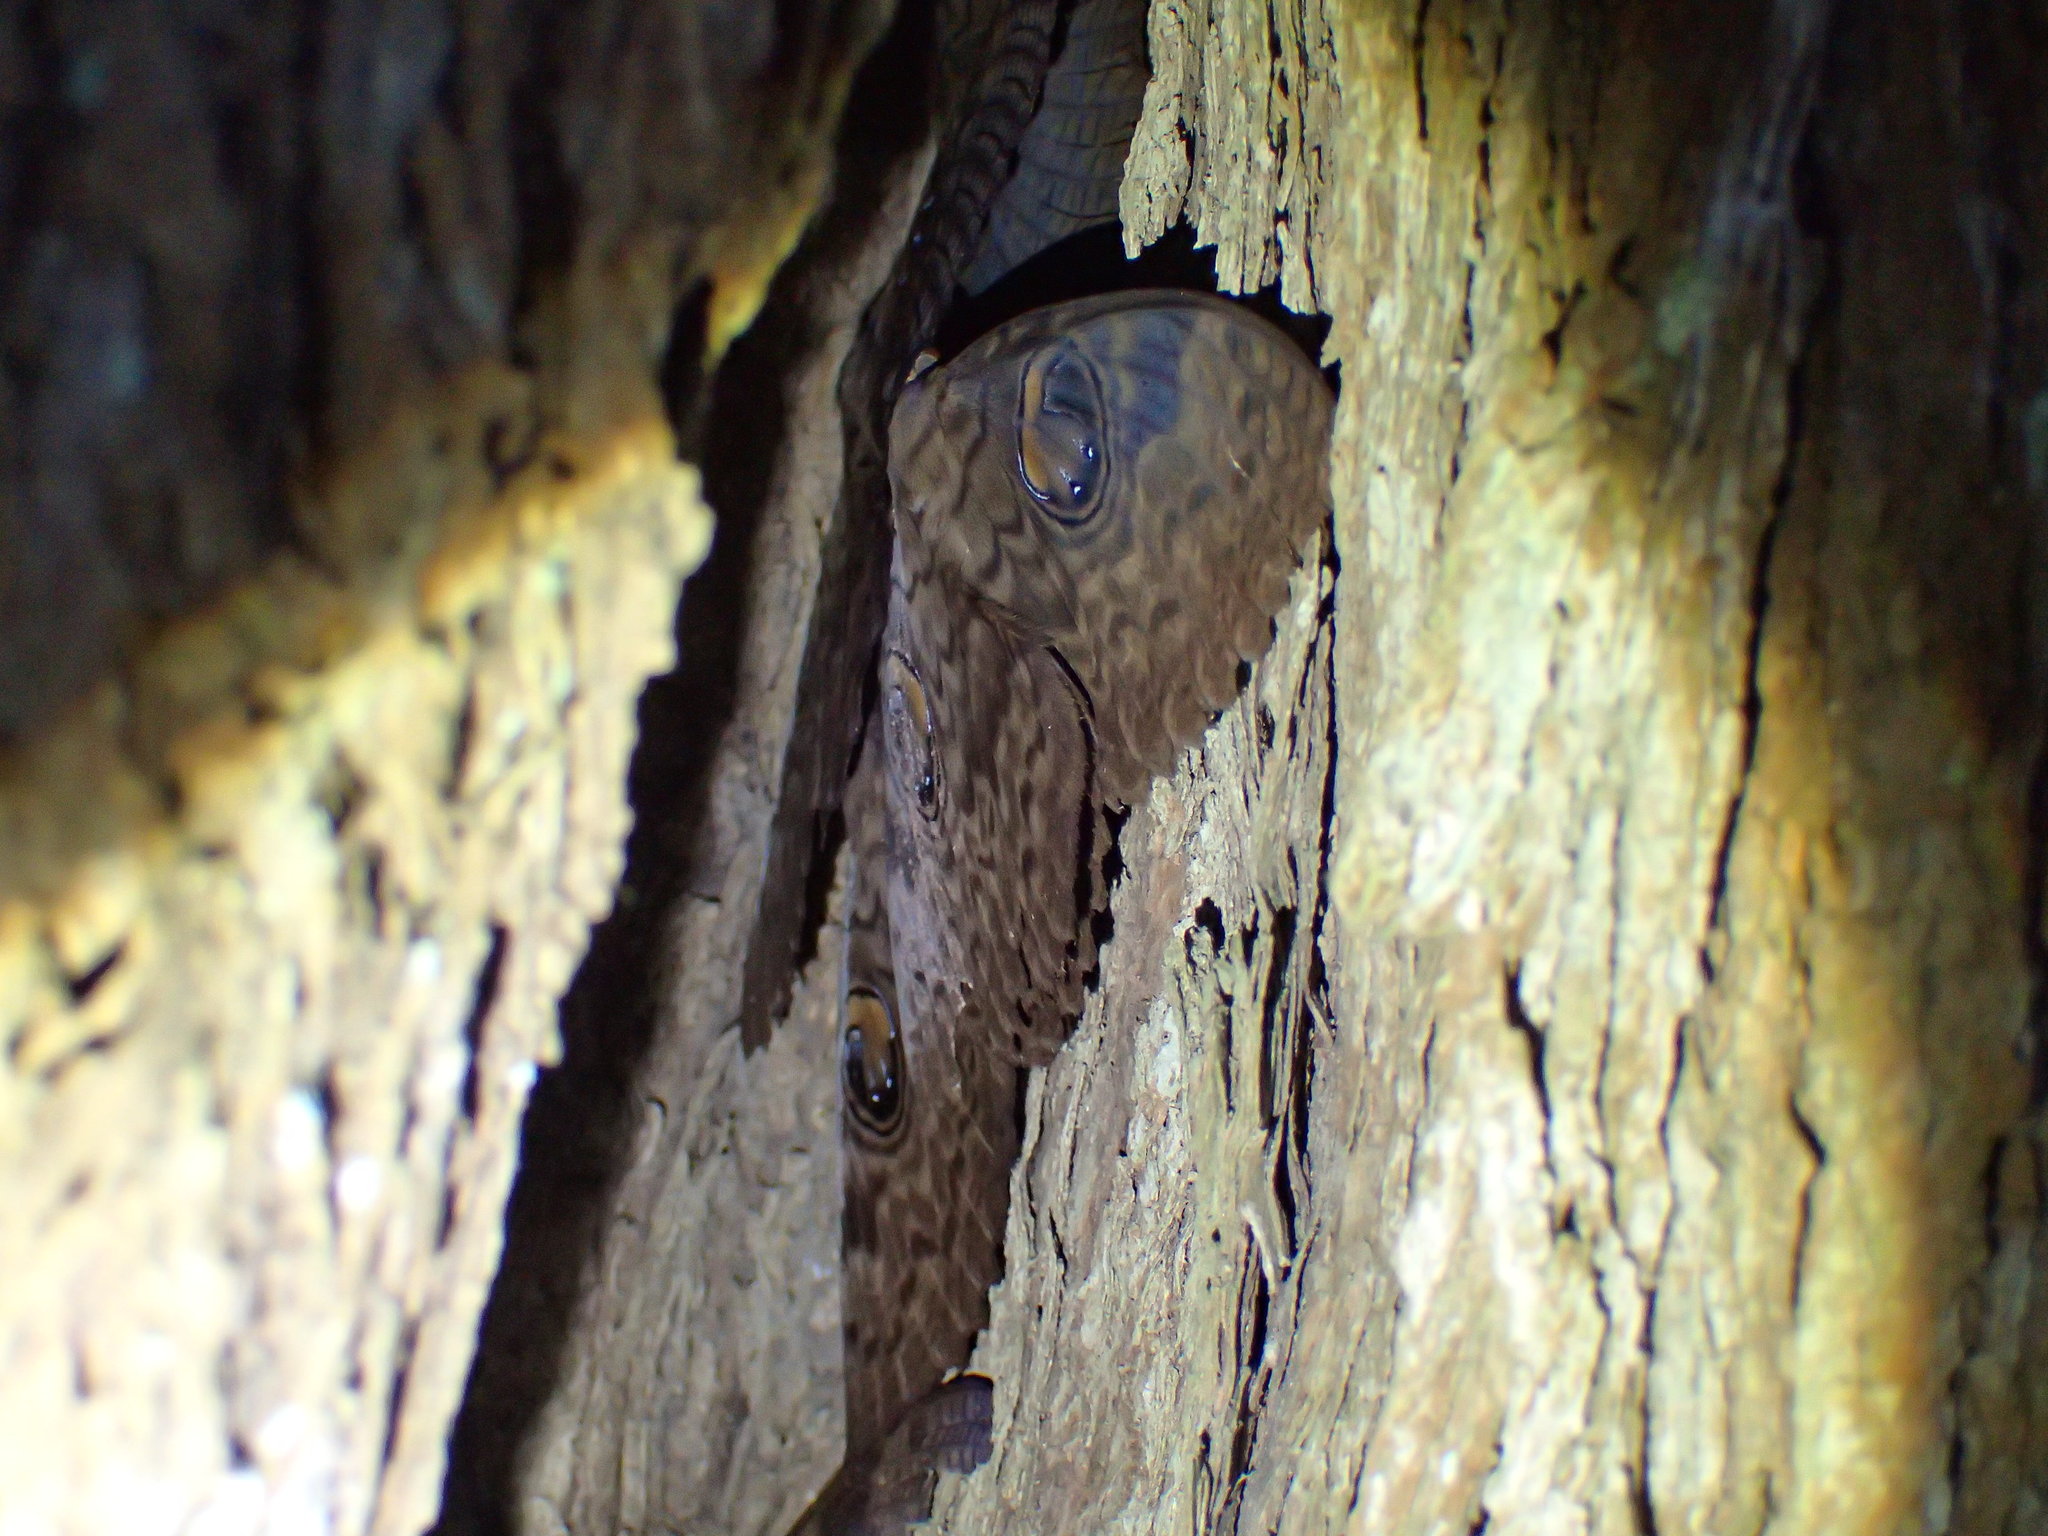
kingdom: Animalia
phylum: Arthropoda
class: Insecta
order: Lepidoptera
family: Erebidae
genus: Erebus
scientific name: Erebus walkeri
